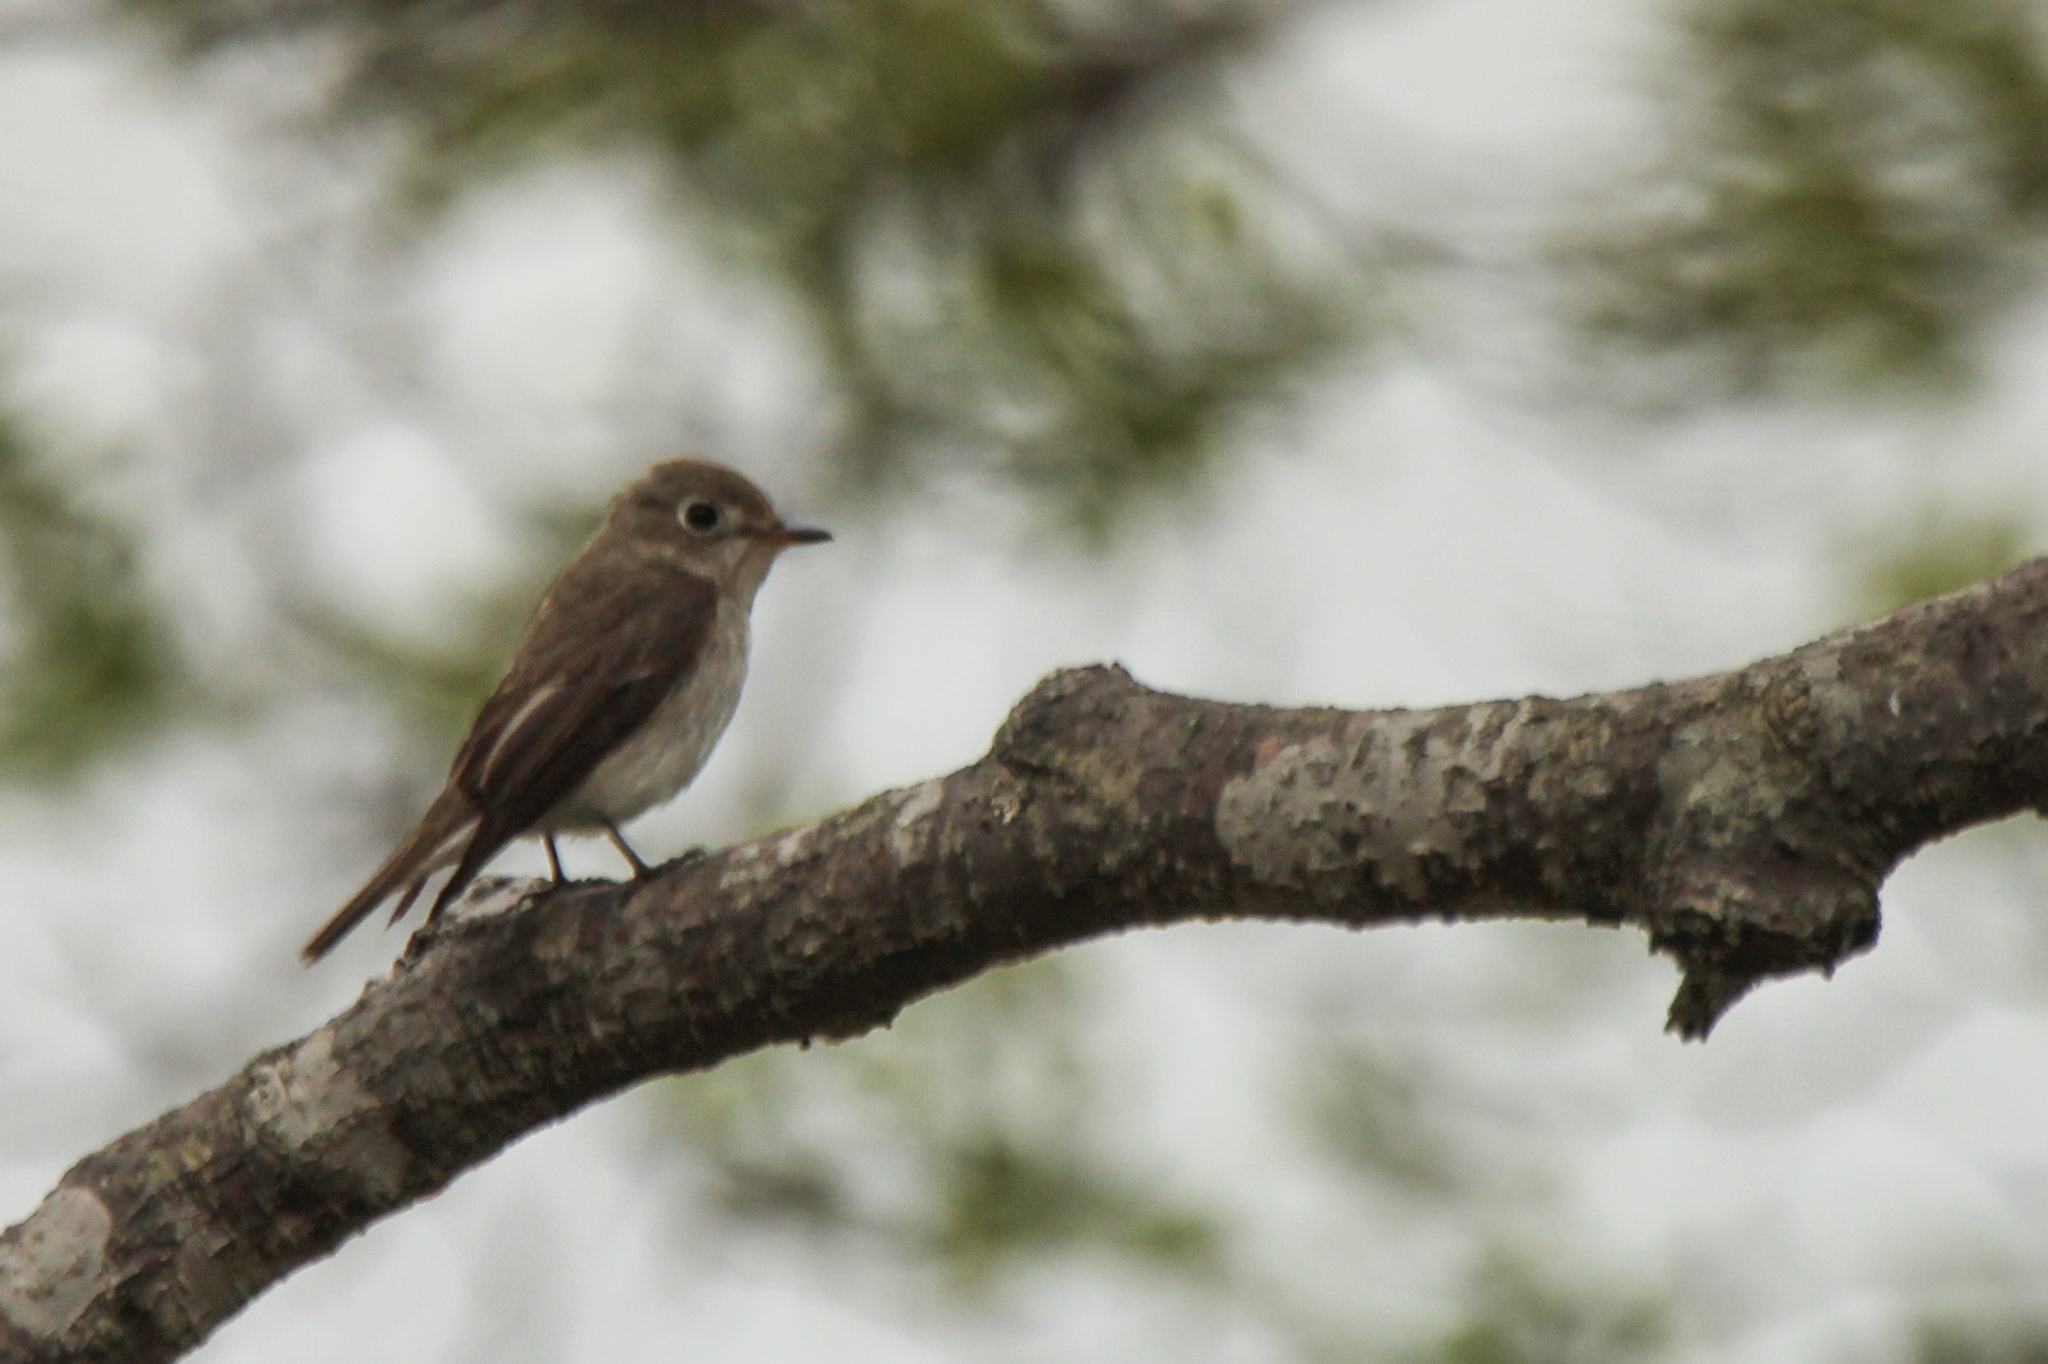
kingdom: Animalia
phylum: Chordata
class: Aves
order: Passeriformes
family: Muscicapidae
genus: Muscicapa
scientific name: Muscicapa latirostris
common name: Asian brown flycatcher
